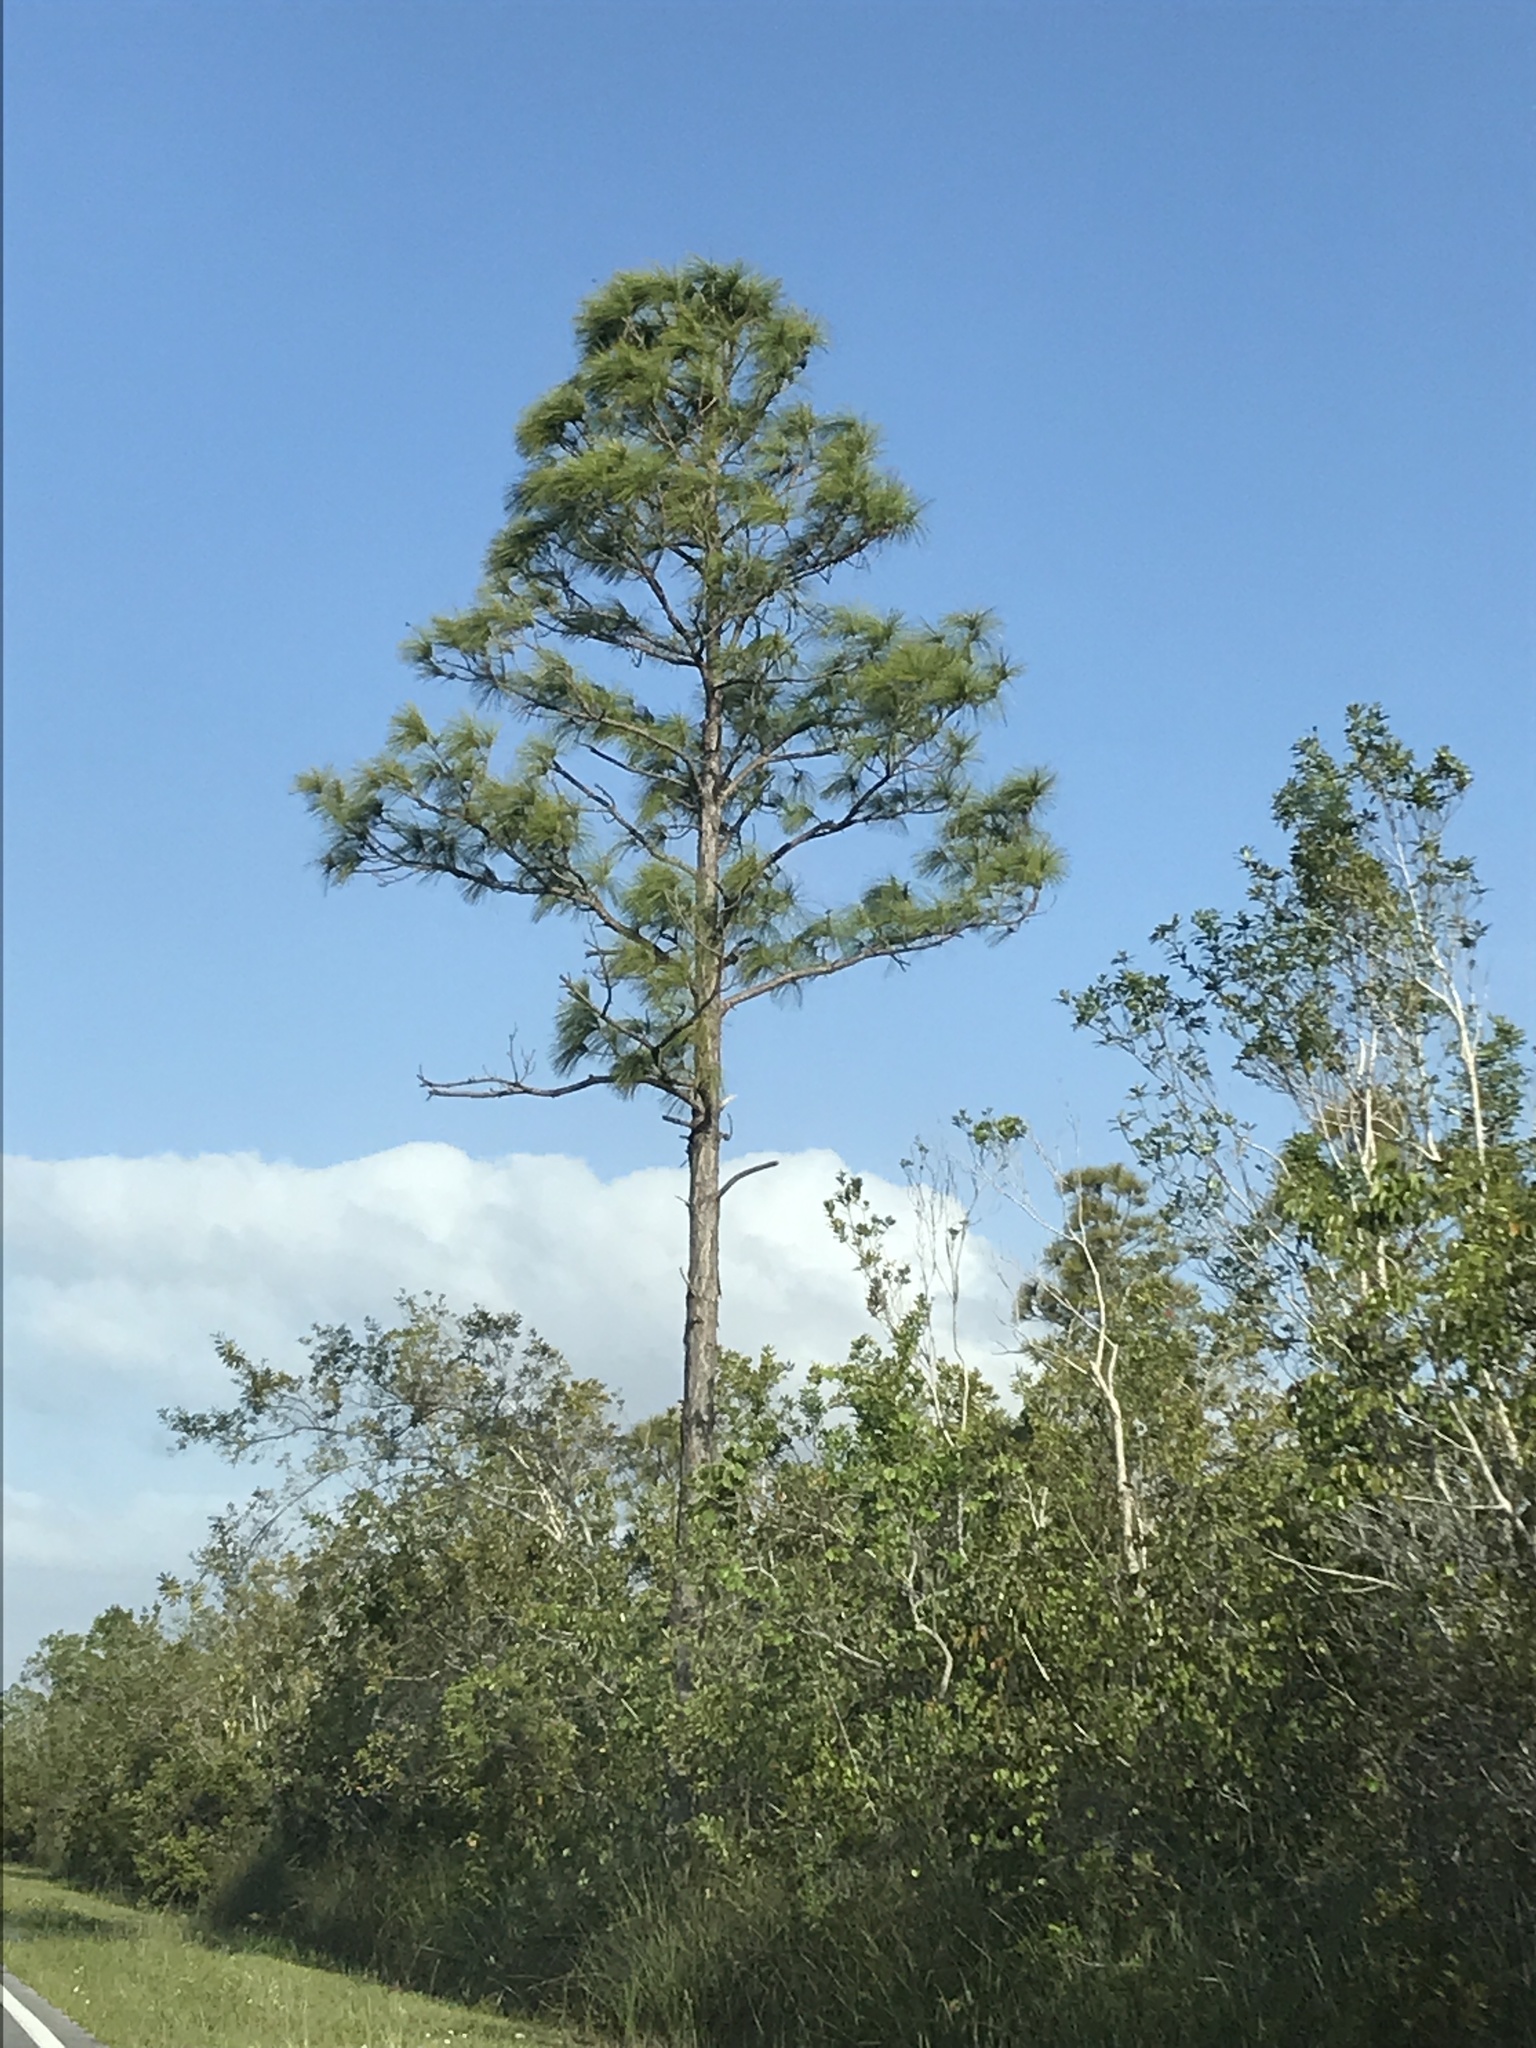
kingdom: Plantae
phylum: Tracheophyta
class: Pinopsida
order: Pinales
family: Pinaceae
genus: Pinus
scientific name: Pinus elliottii
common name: Slash pine
